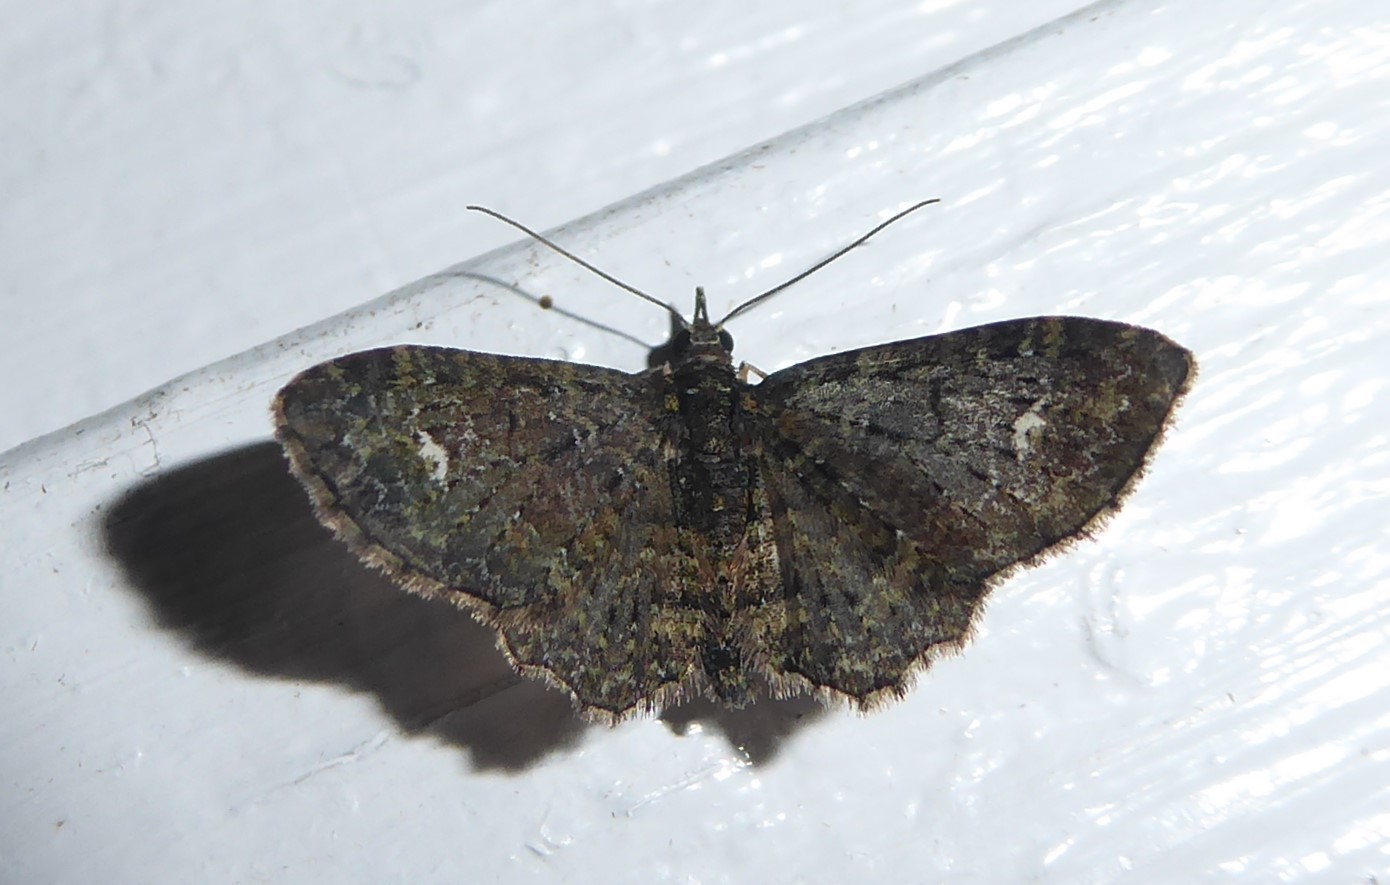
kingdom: Animalia
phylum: Arthropoda
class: Insecta
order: Lepidoptera
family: Geometridae
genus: Pasiphilodes
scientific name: Pasiphilodes testulata
